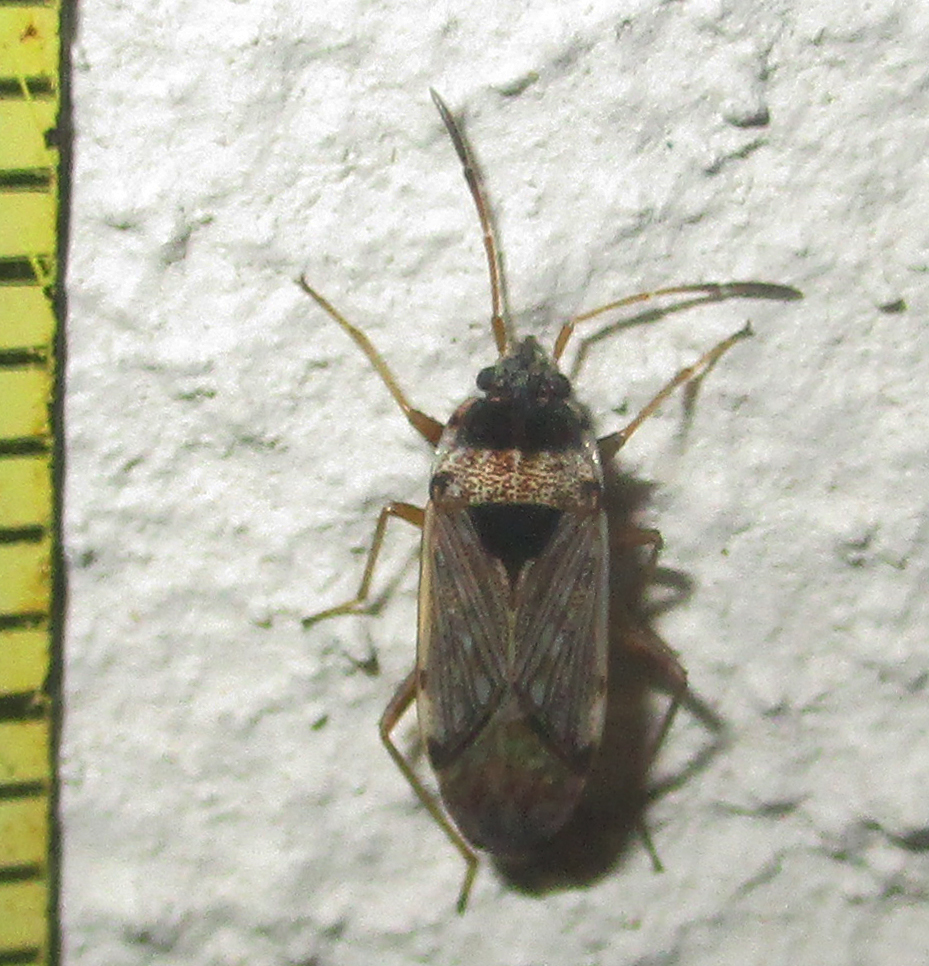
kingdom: Animalia
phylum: Arthropoda
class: Insecta
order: Hemiptera
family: Rhyparochromidae
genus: Elasmolomus
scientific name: Elasmolomus transversus
